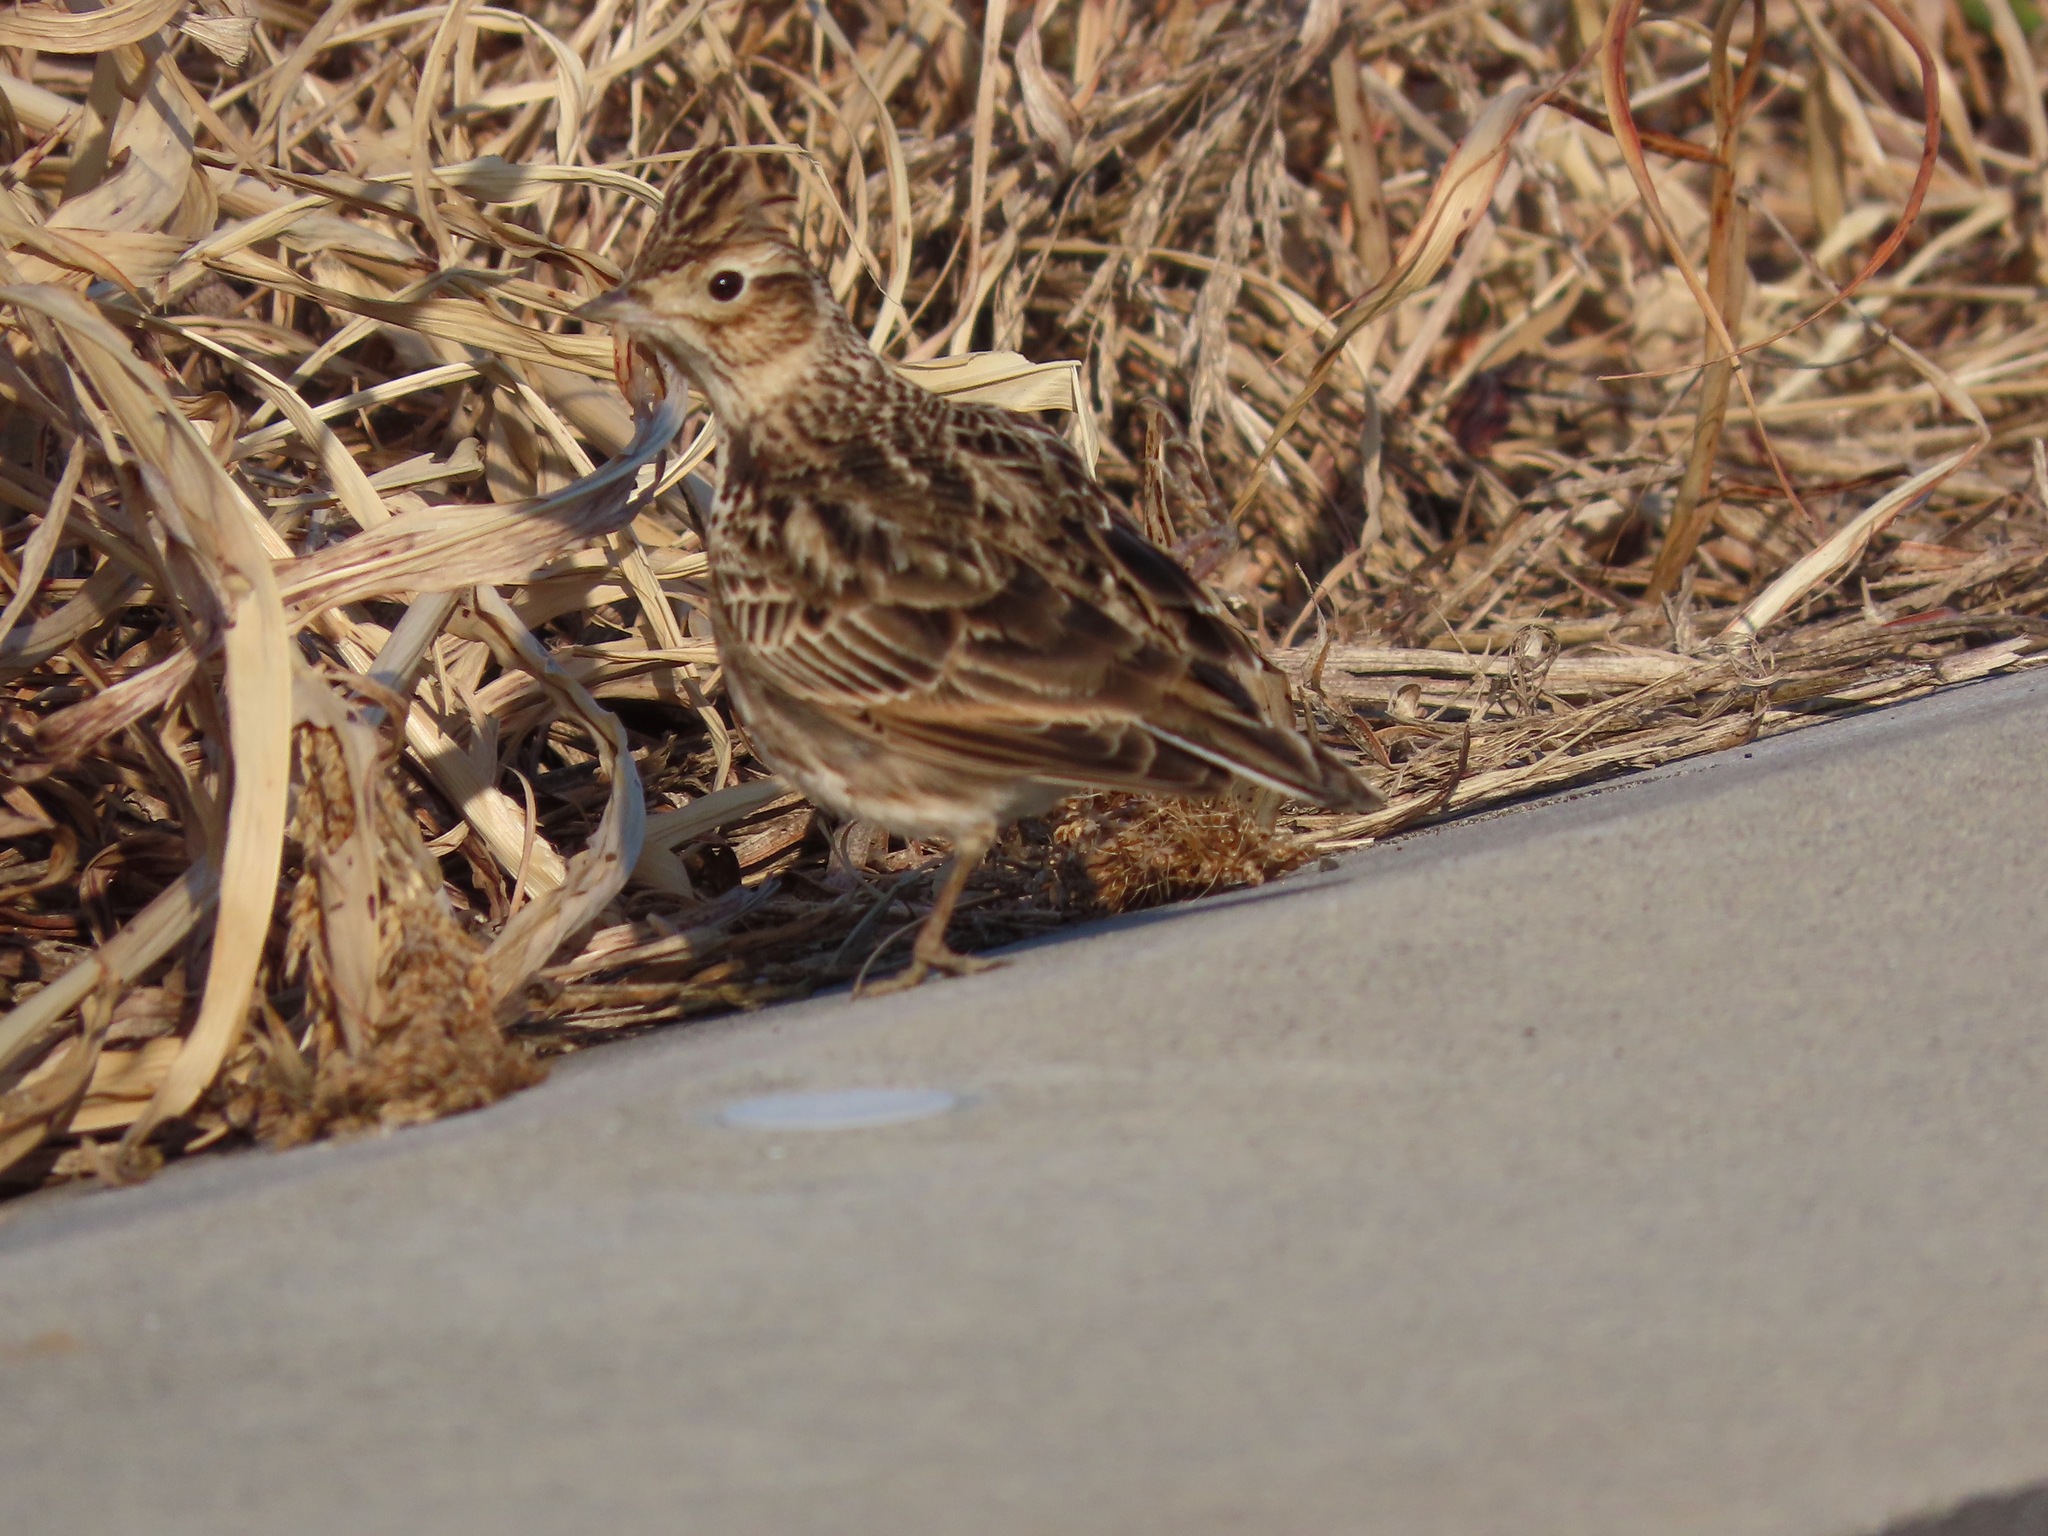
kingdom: Animalia
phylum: Chordata
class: Aves
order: Passeriformes
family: Alaudidae
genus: Alauda
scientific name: Alauda arvensis
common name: Eurasian skylark
